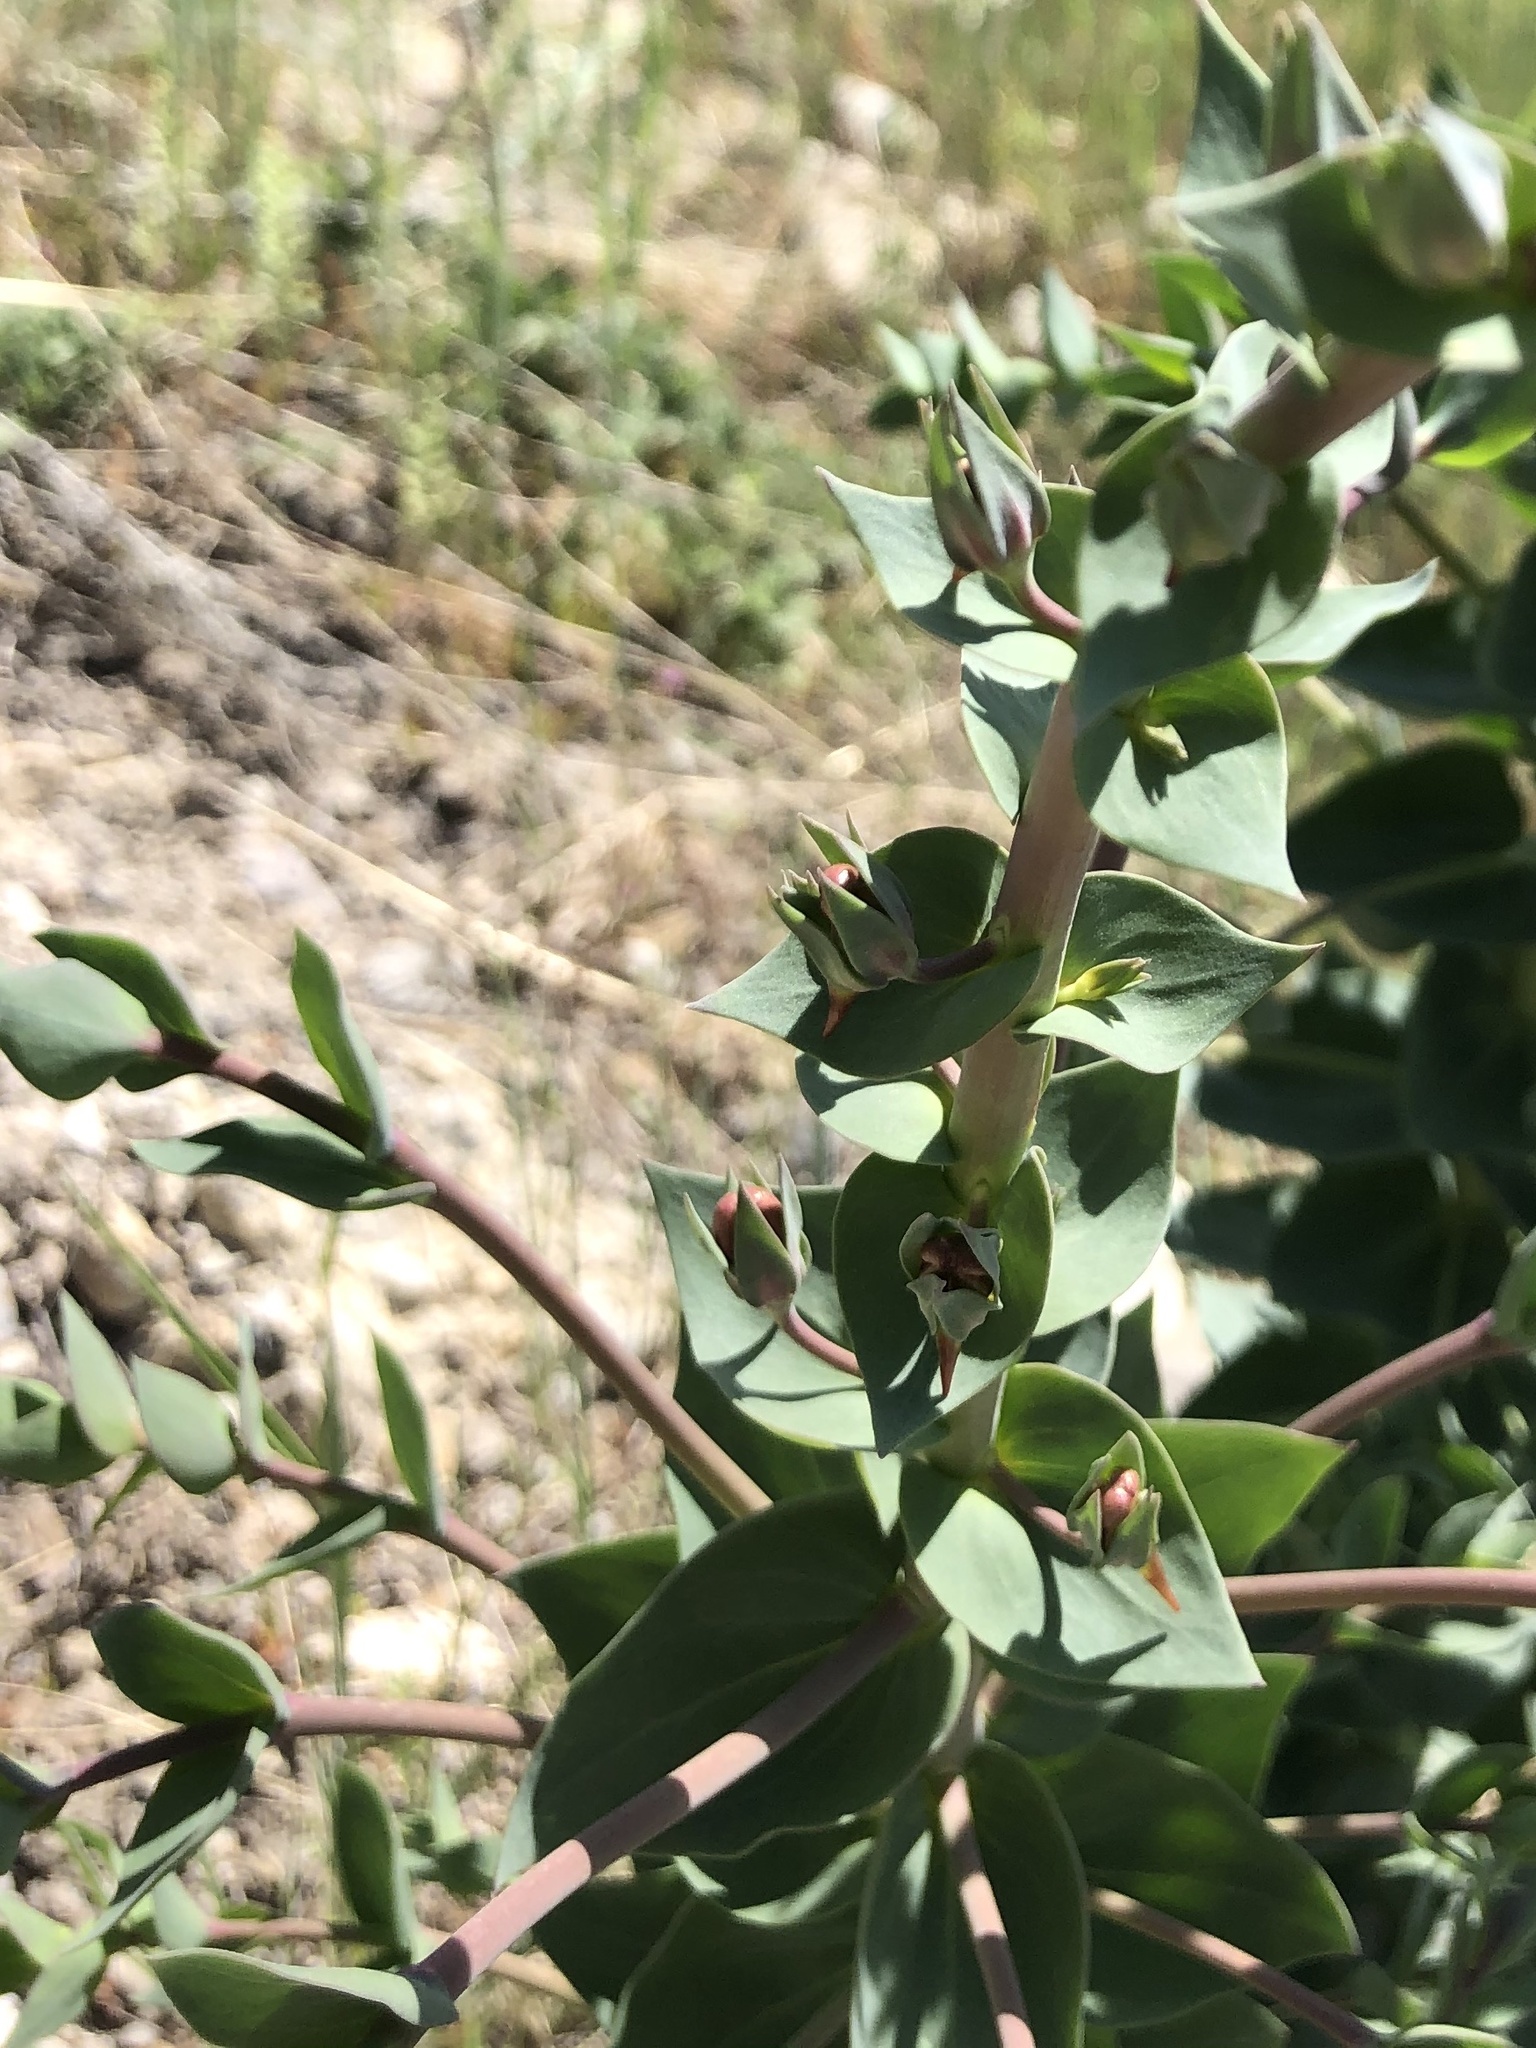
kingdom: Plantae
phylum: Tracheophyta
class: Magnoliopsida
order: Lamiales
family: Plantaginaceae
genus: Linaria
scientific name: Linaria dalmatica
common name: Dalmatian toadflax
